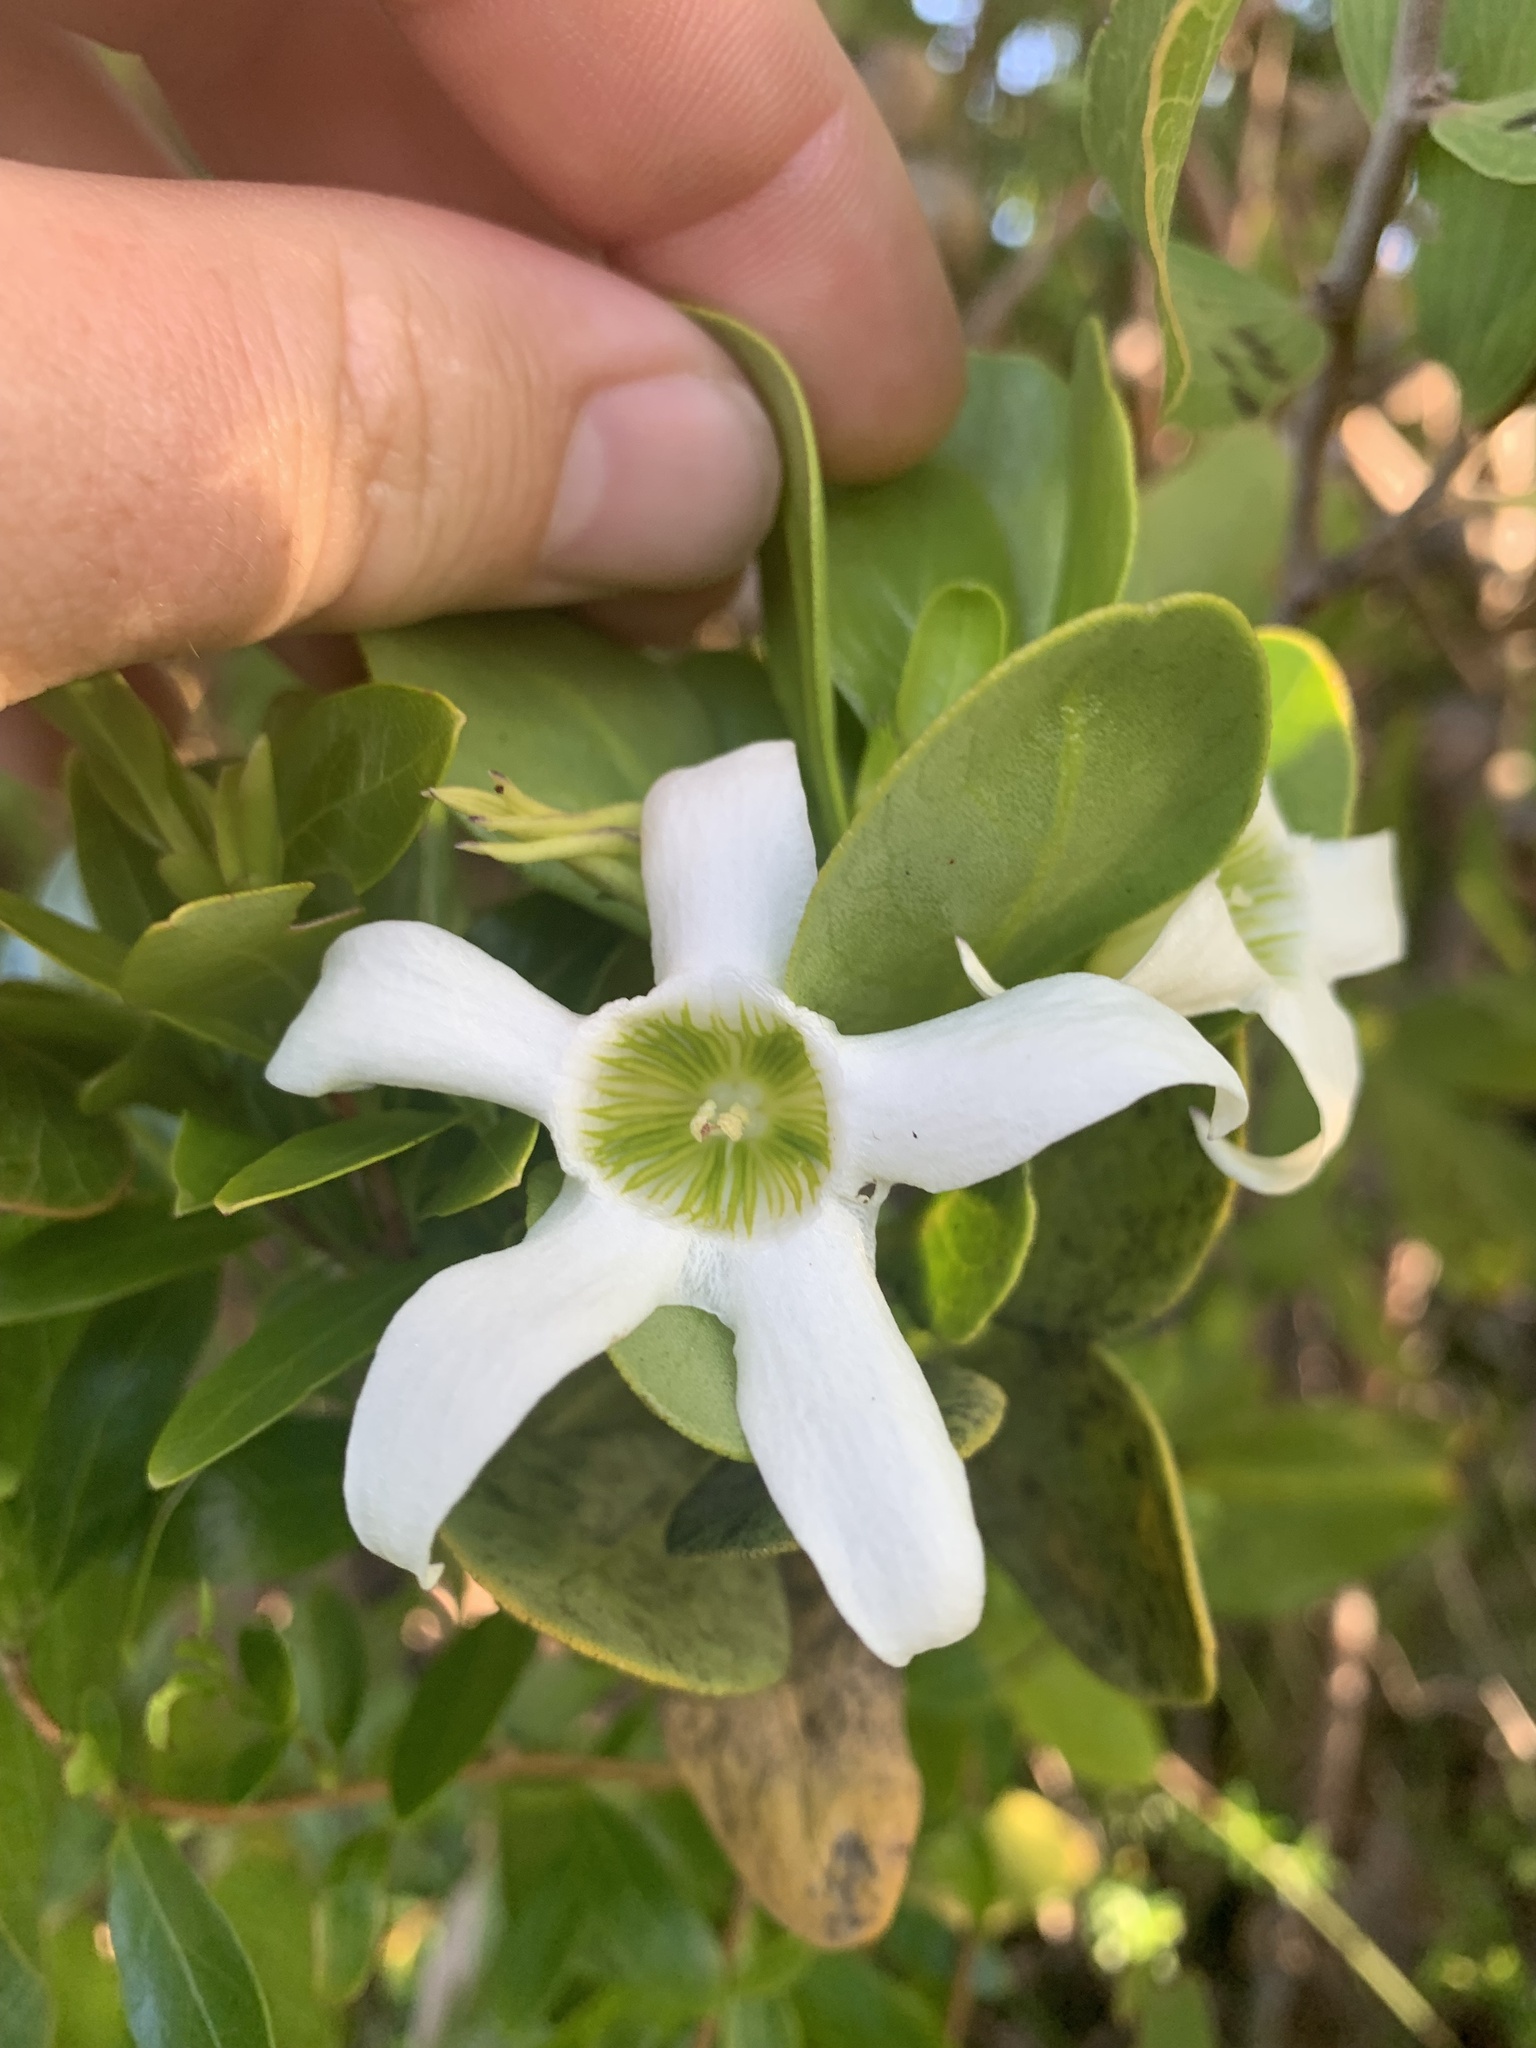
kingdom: Plantae
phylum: Tracheophyta
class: Magnoliopsida
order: Solanales
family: Solanaceae
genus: Anthocercis
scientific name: Anthocercis viscosa
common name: Sticky tailflower
